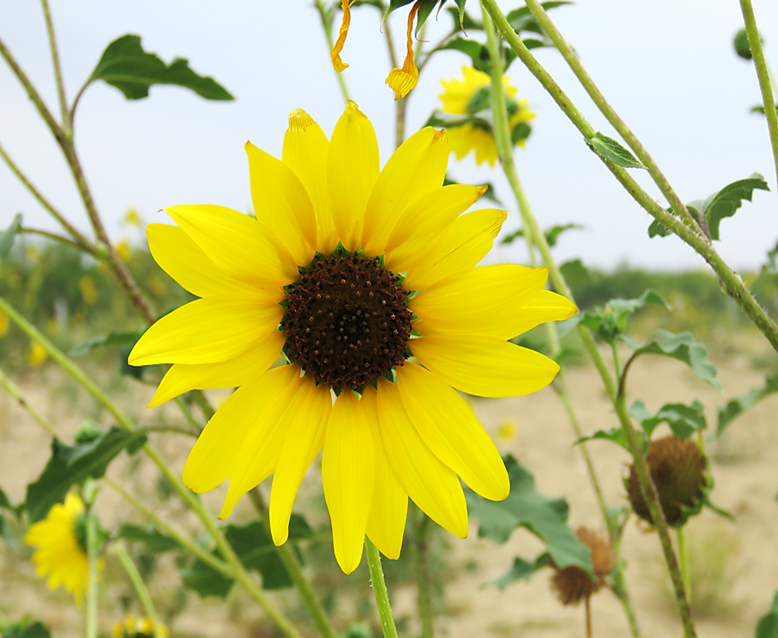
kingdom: Plantae
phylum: Tracheophyta
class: Magnoliopsida
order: Asterales
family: Asteraceae
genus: Helianthus
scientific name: Helianthus annuus
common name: Sunflower
